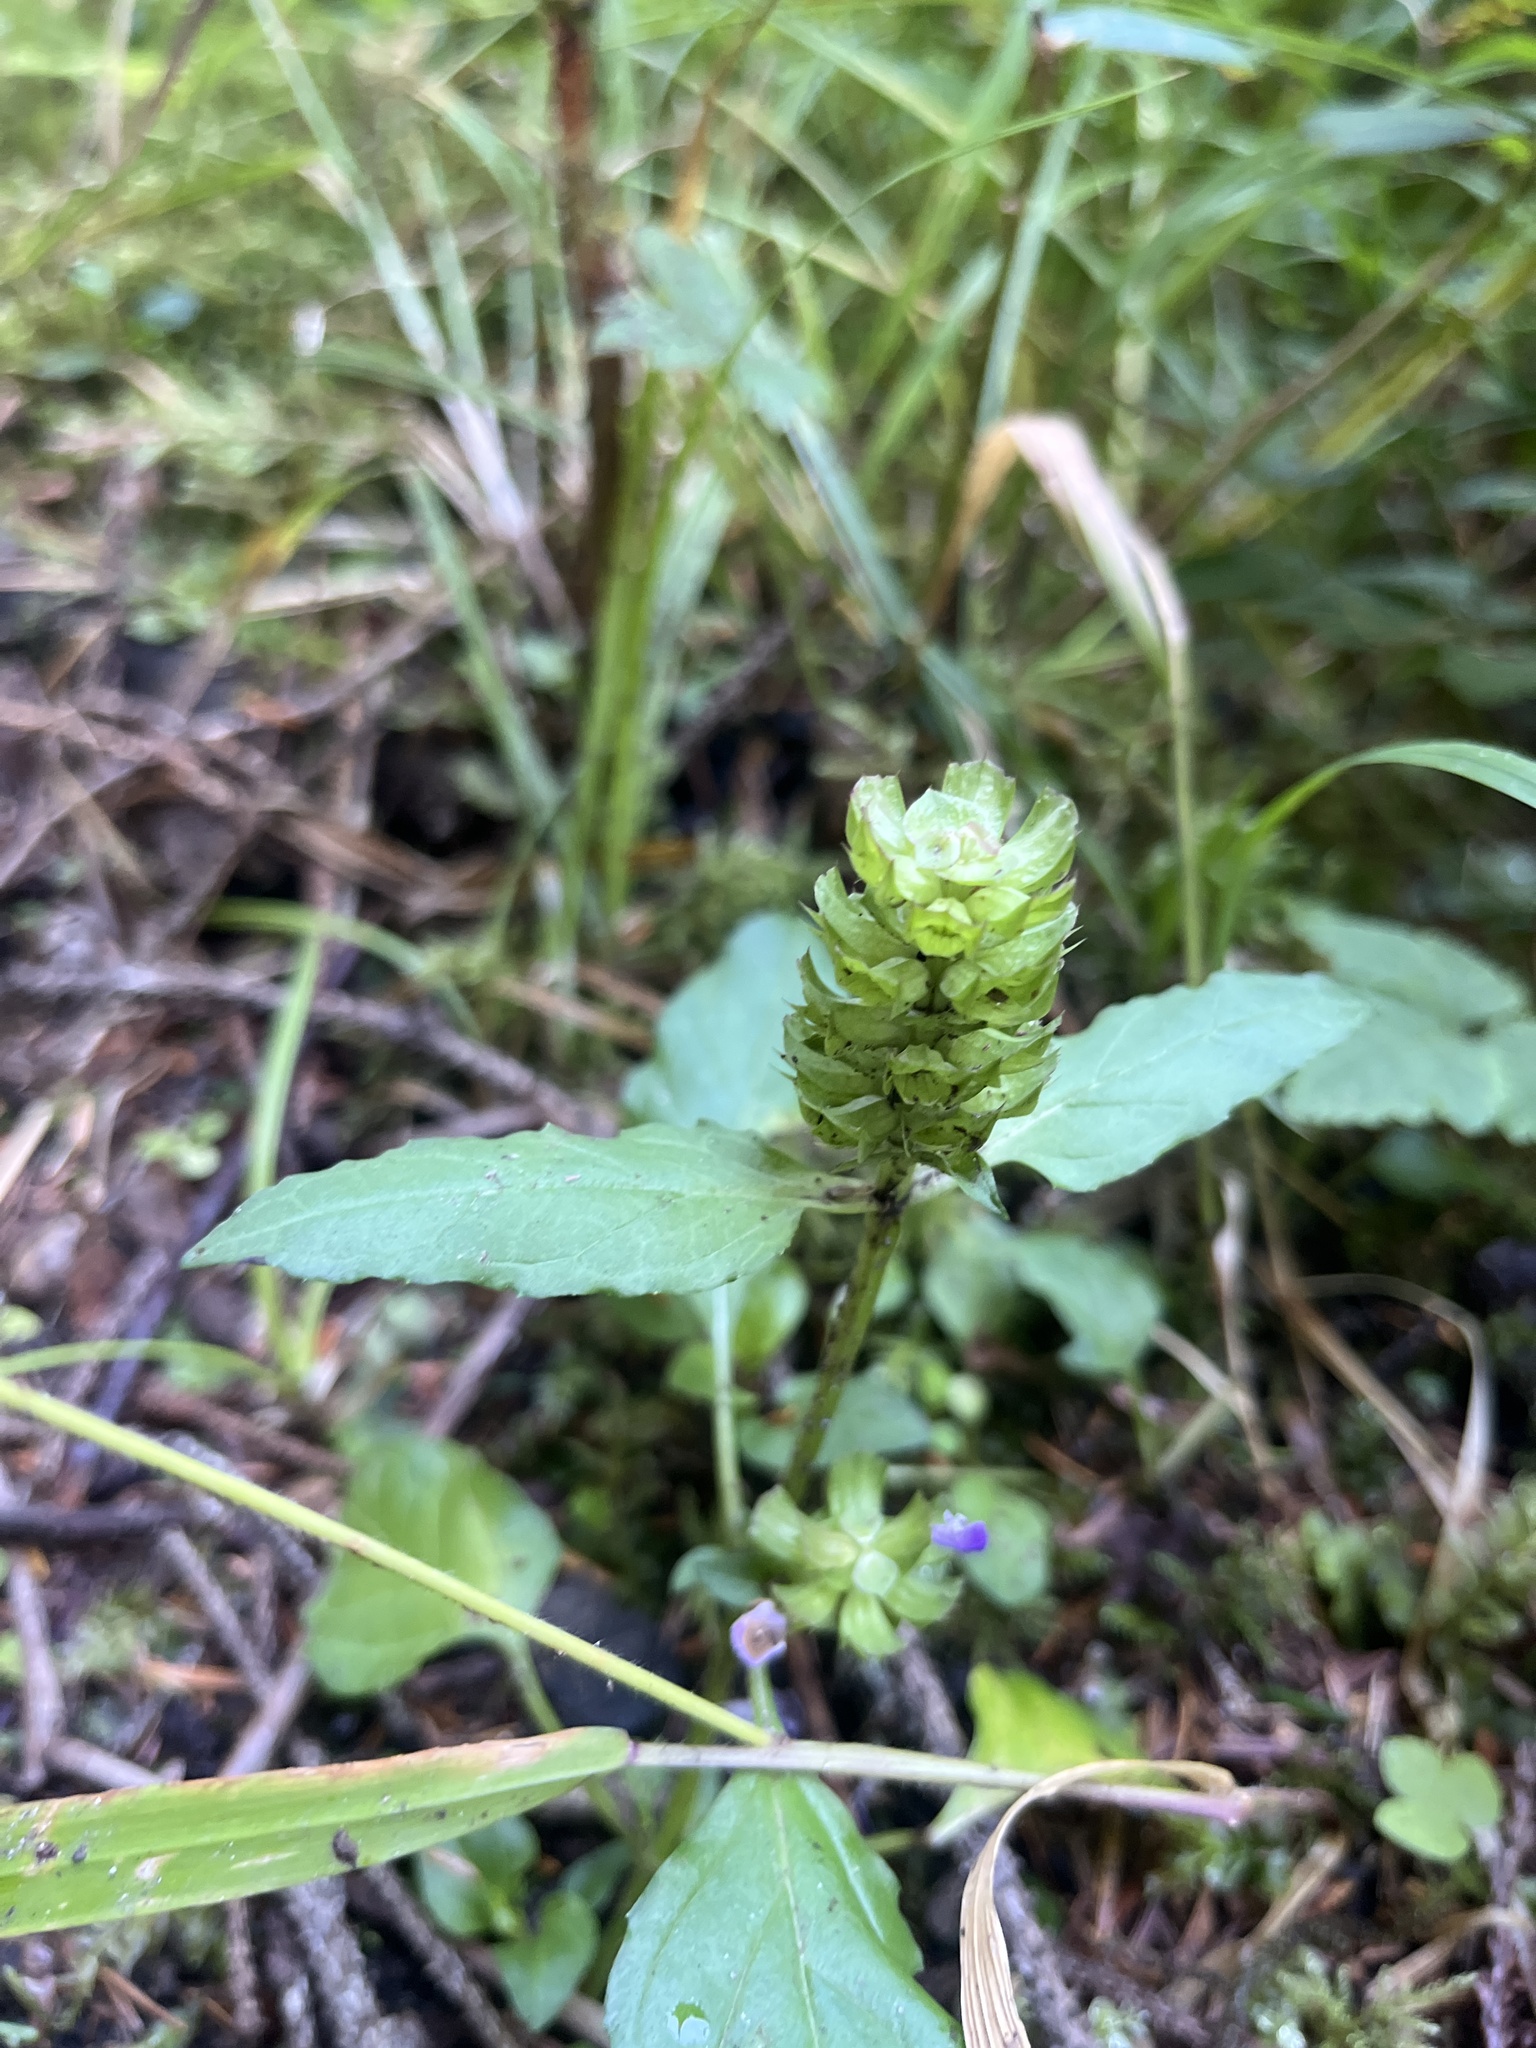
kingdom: Plantae
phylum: Tracheophyta
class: Magnoliopsida
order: Lamiales
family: Lamiaceae
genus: Prunella
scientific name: Prunella vulgaris
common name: Heal-all
